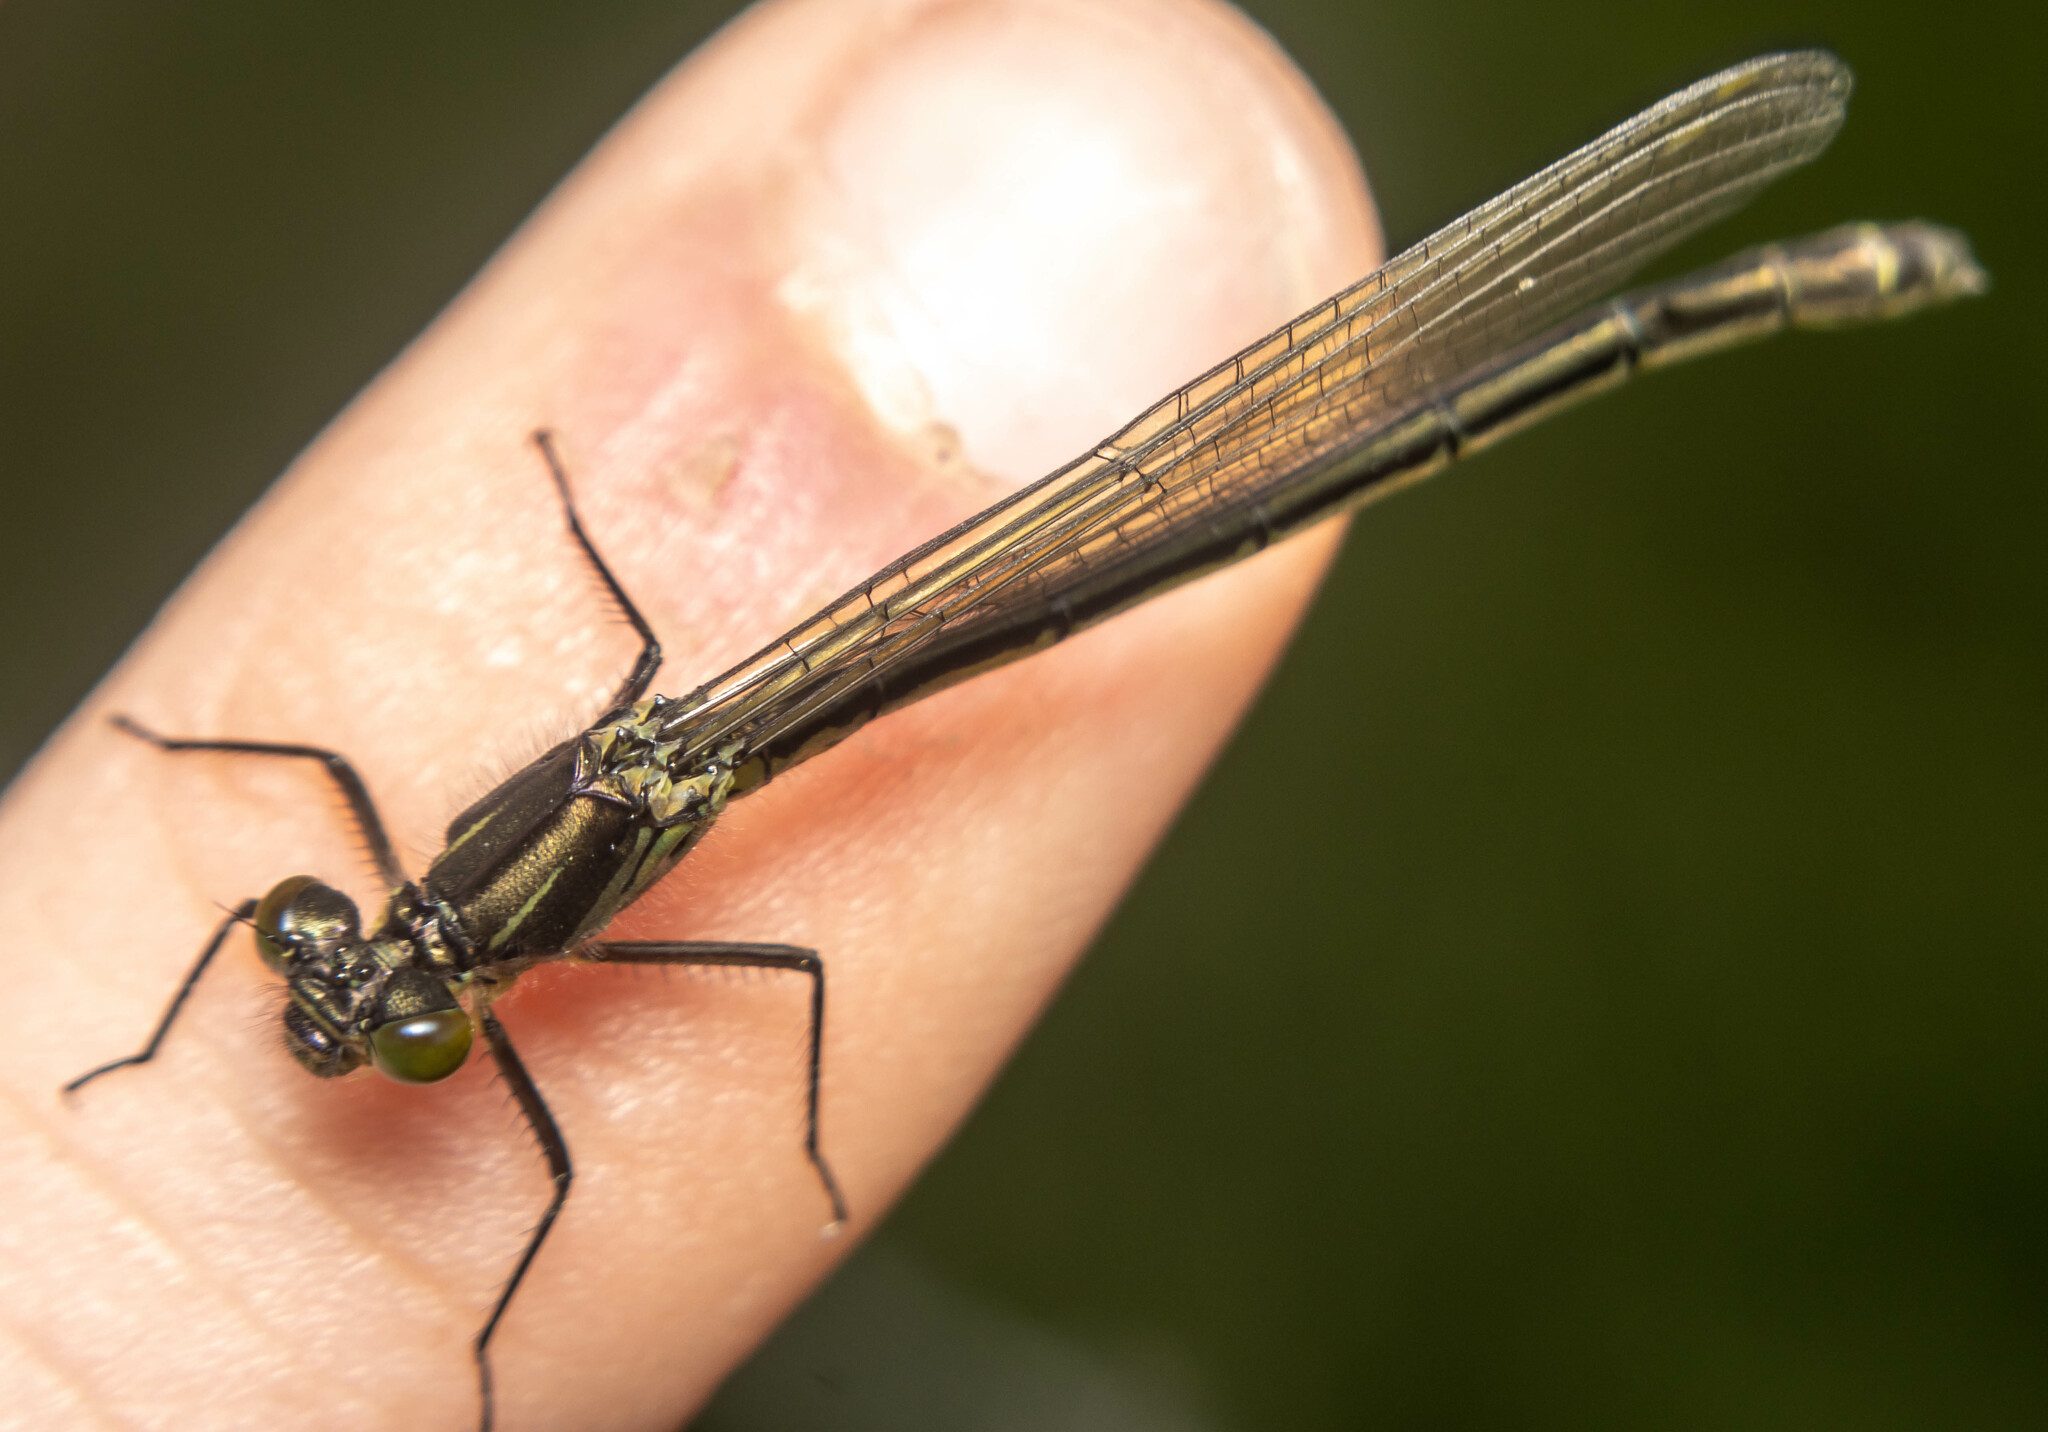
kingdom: Animalia
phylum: Arthropoda
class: Insecta
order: Odonata
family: Coenagrionidae
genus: Erythromma
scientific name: Erythromma najas
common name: Red-eyed damselfly
